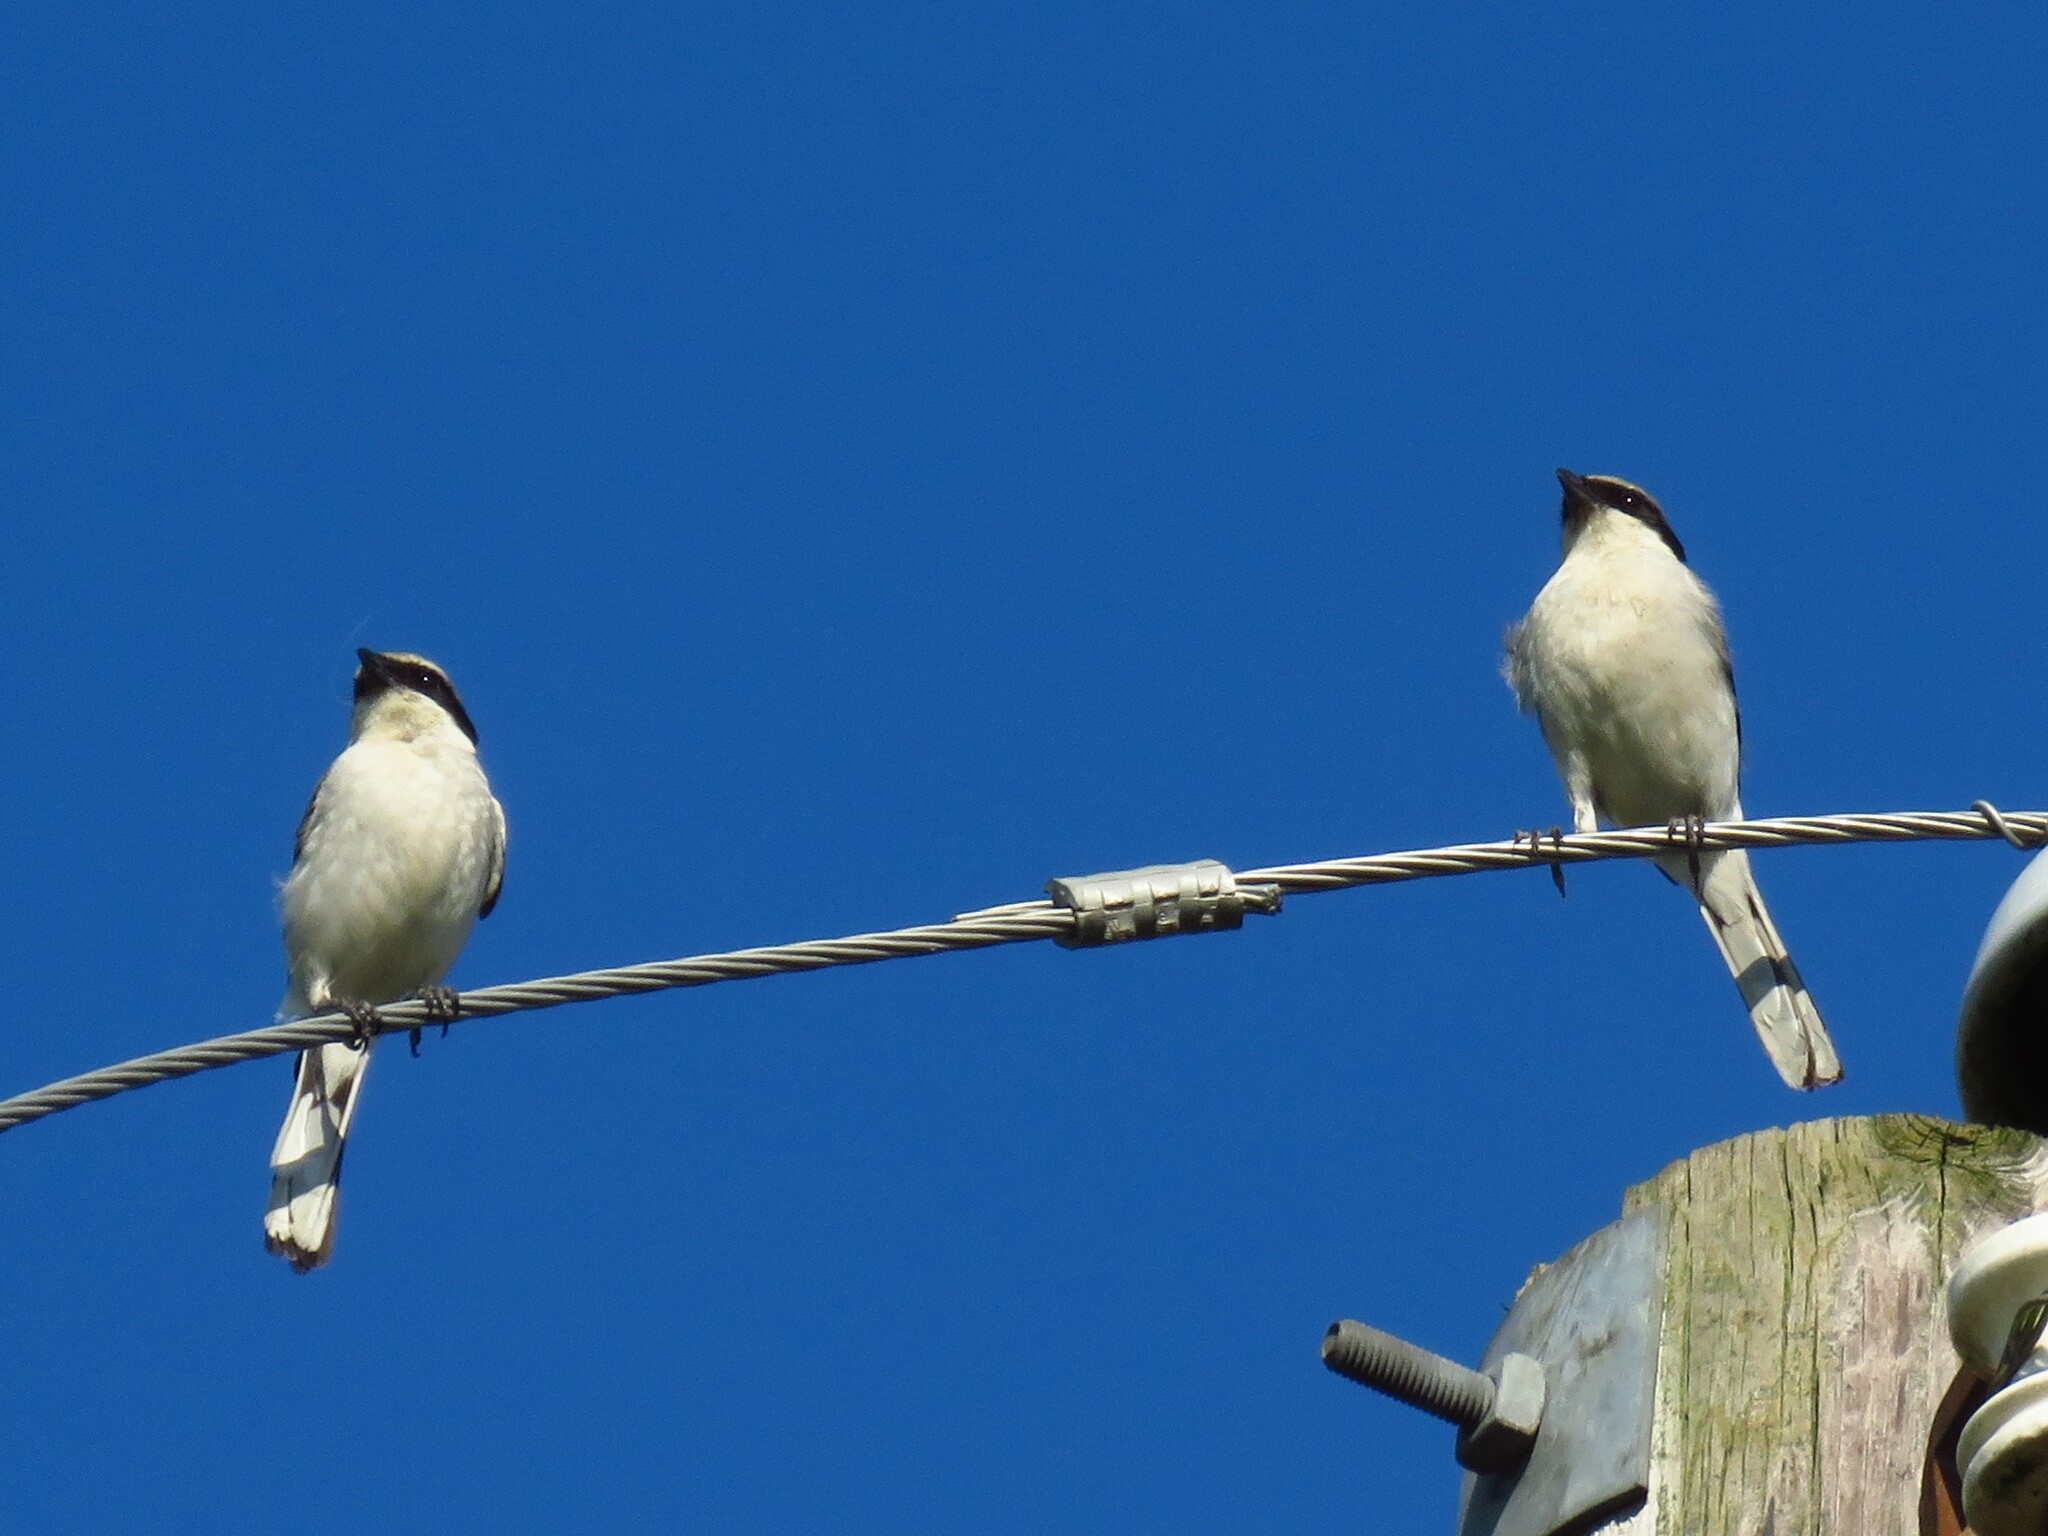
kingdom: Animalia
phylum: Chordata
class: Aves
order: Passeriformes
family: Laniidae
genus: Lanius
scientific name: Lanius ludovicianus
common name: Loggerhead shrike
